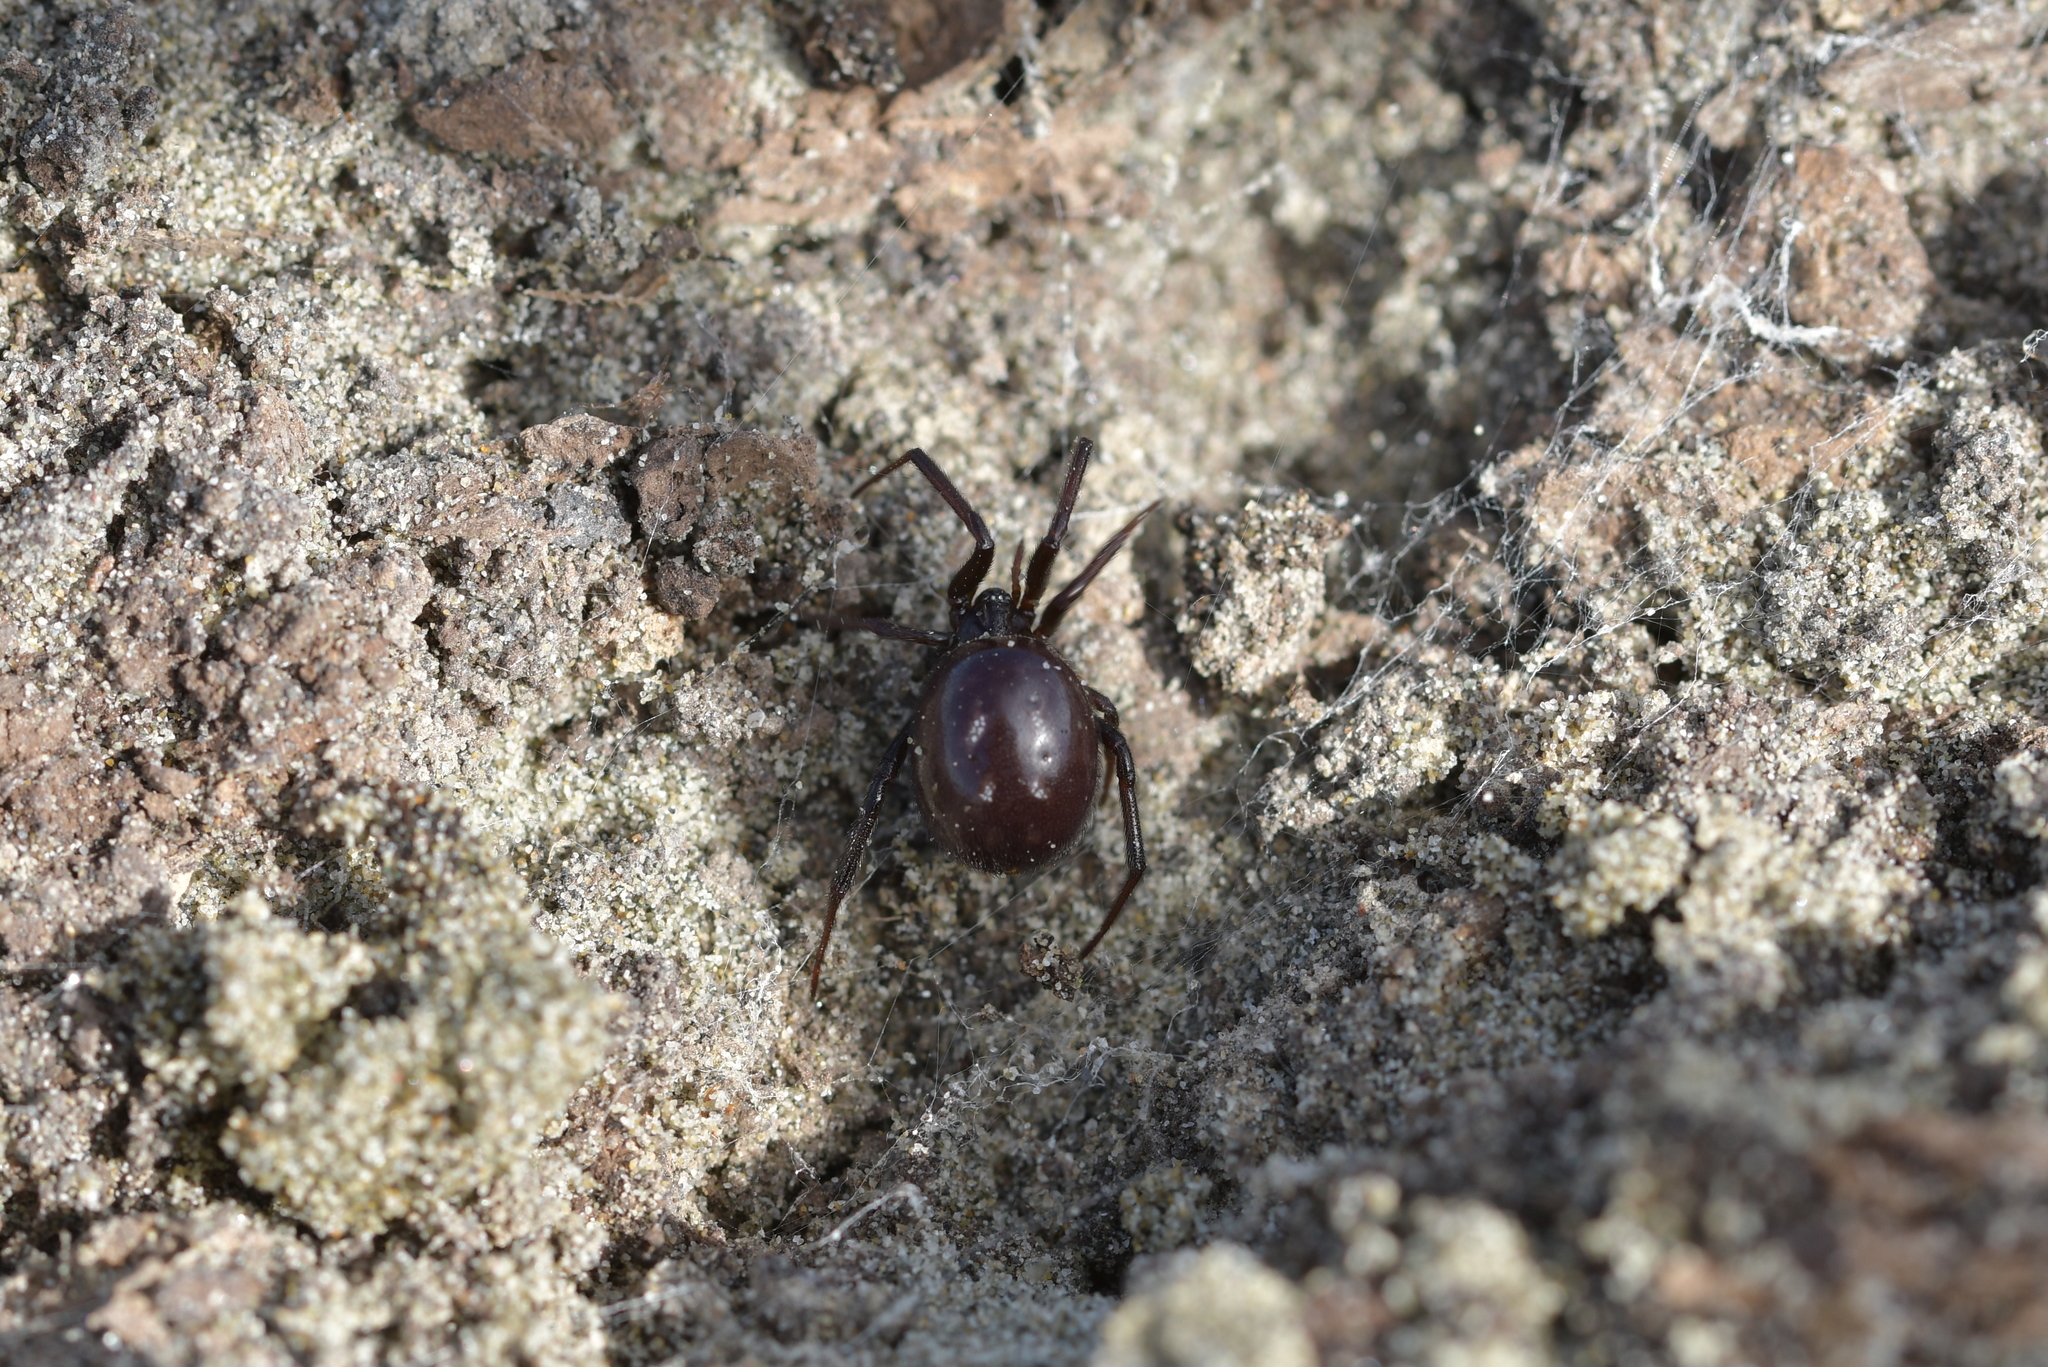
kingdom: Animalia
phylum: Arthropoda
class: Arachnida
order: Araneae
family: Theridiidae
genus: Steatoda
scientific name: Steatoda capensis
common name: Cobweb weaver
